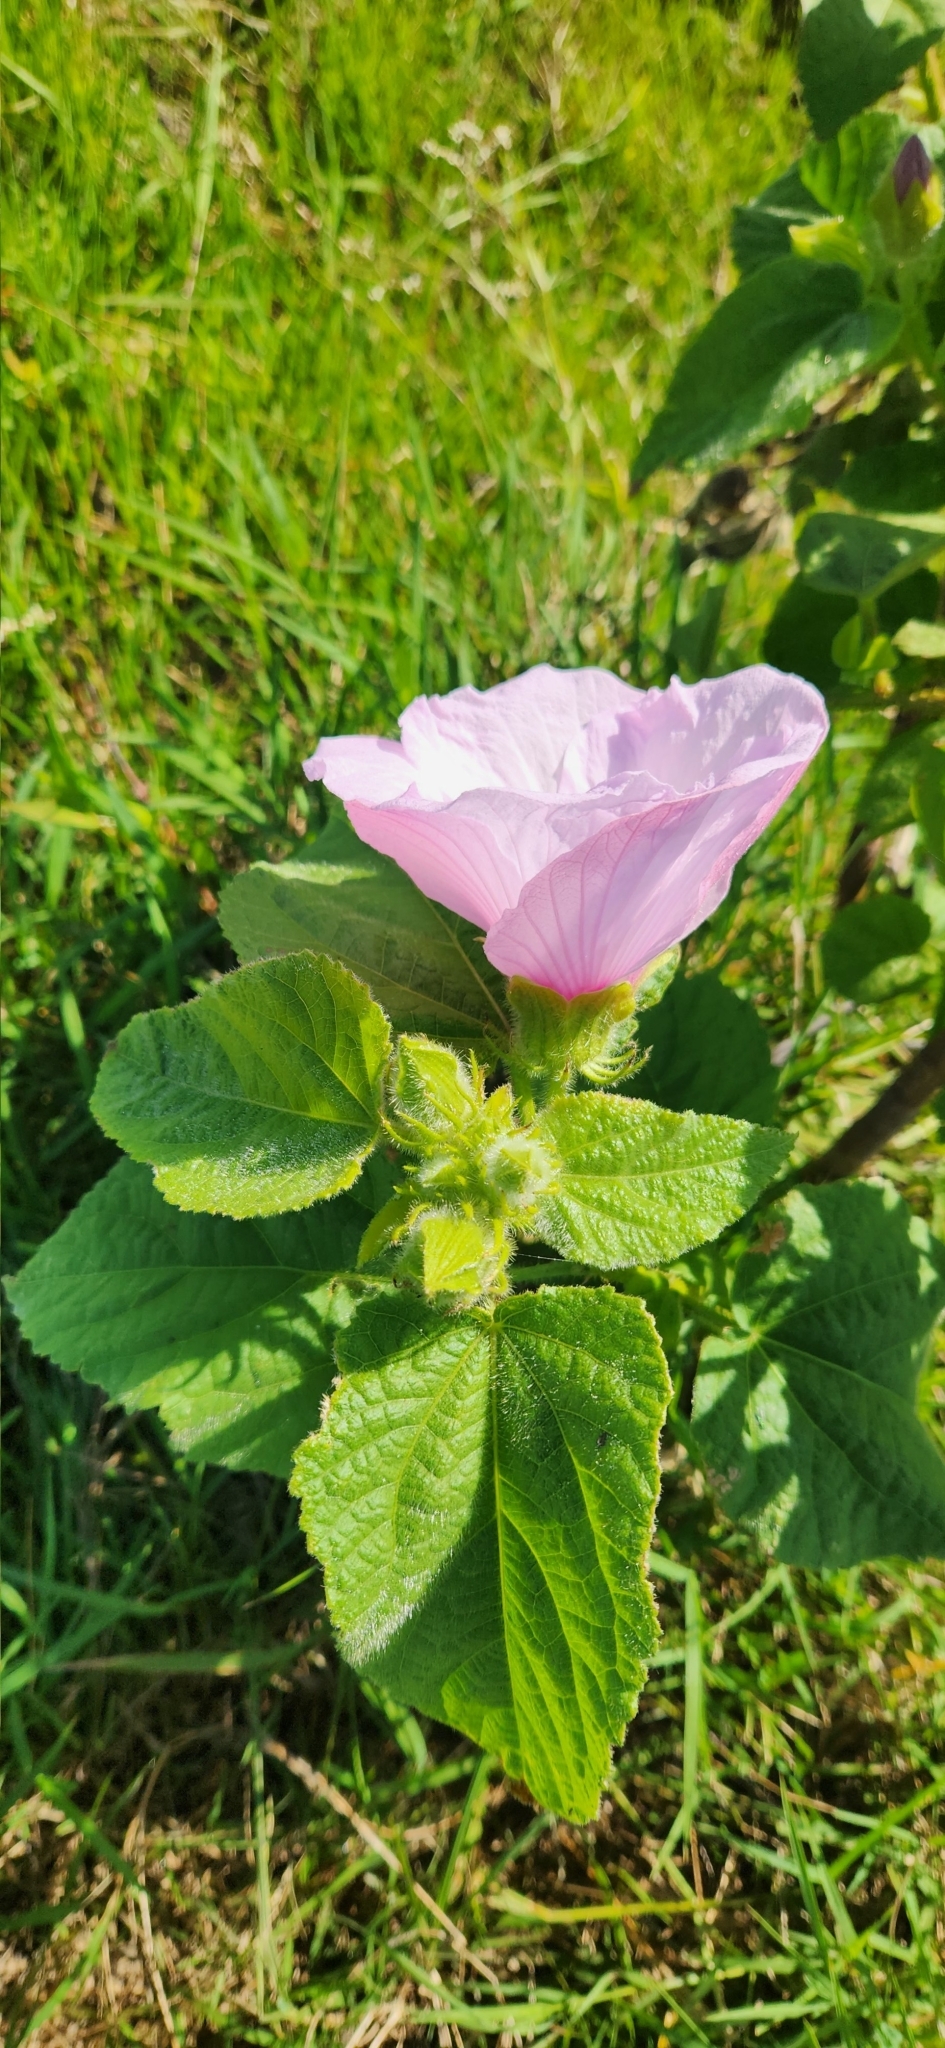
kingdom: Plantae
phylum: Tracheophyta
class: Magnoliopsida
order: Malvales
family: Malvaceae
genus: Hibiscus
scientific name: Hibiscus striatus
